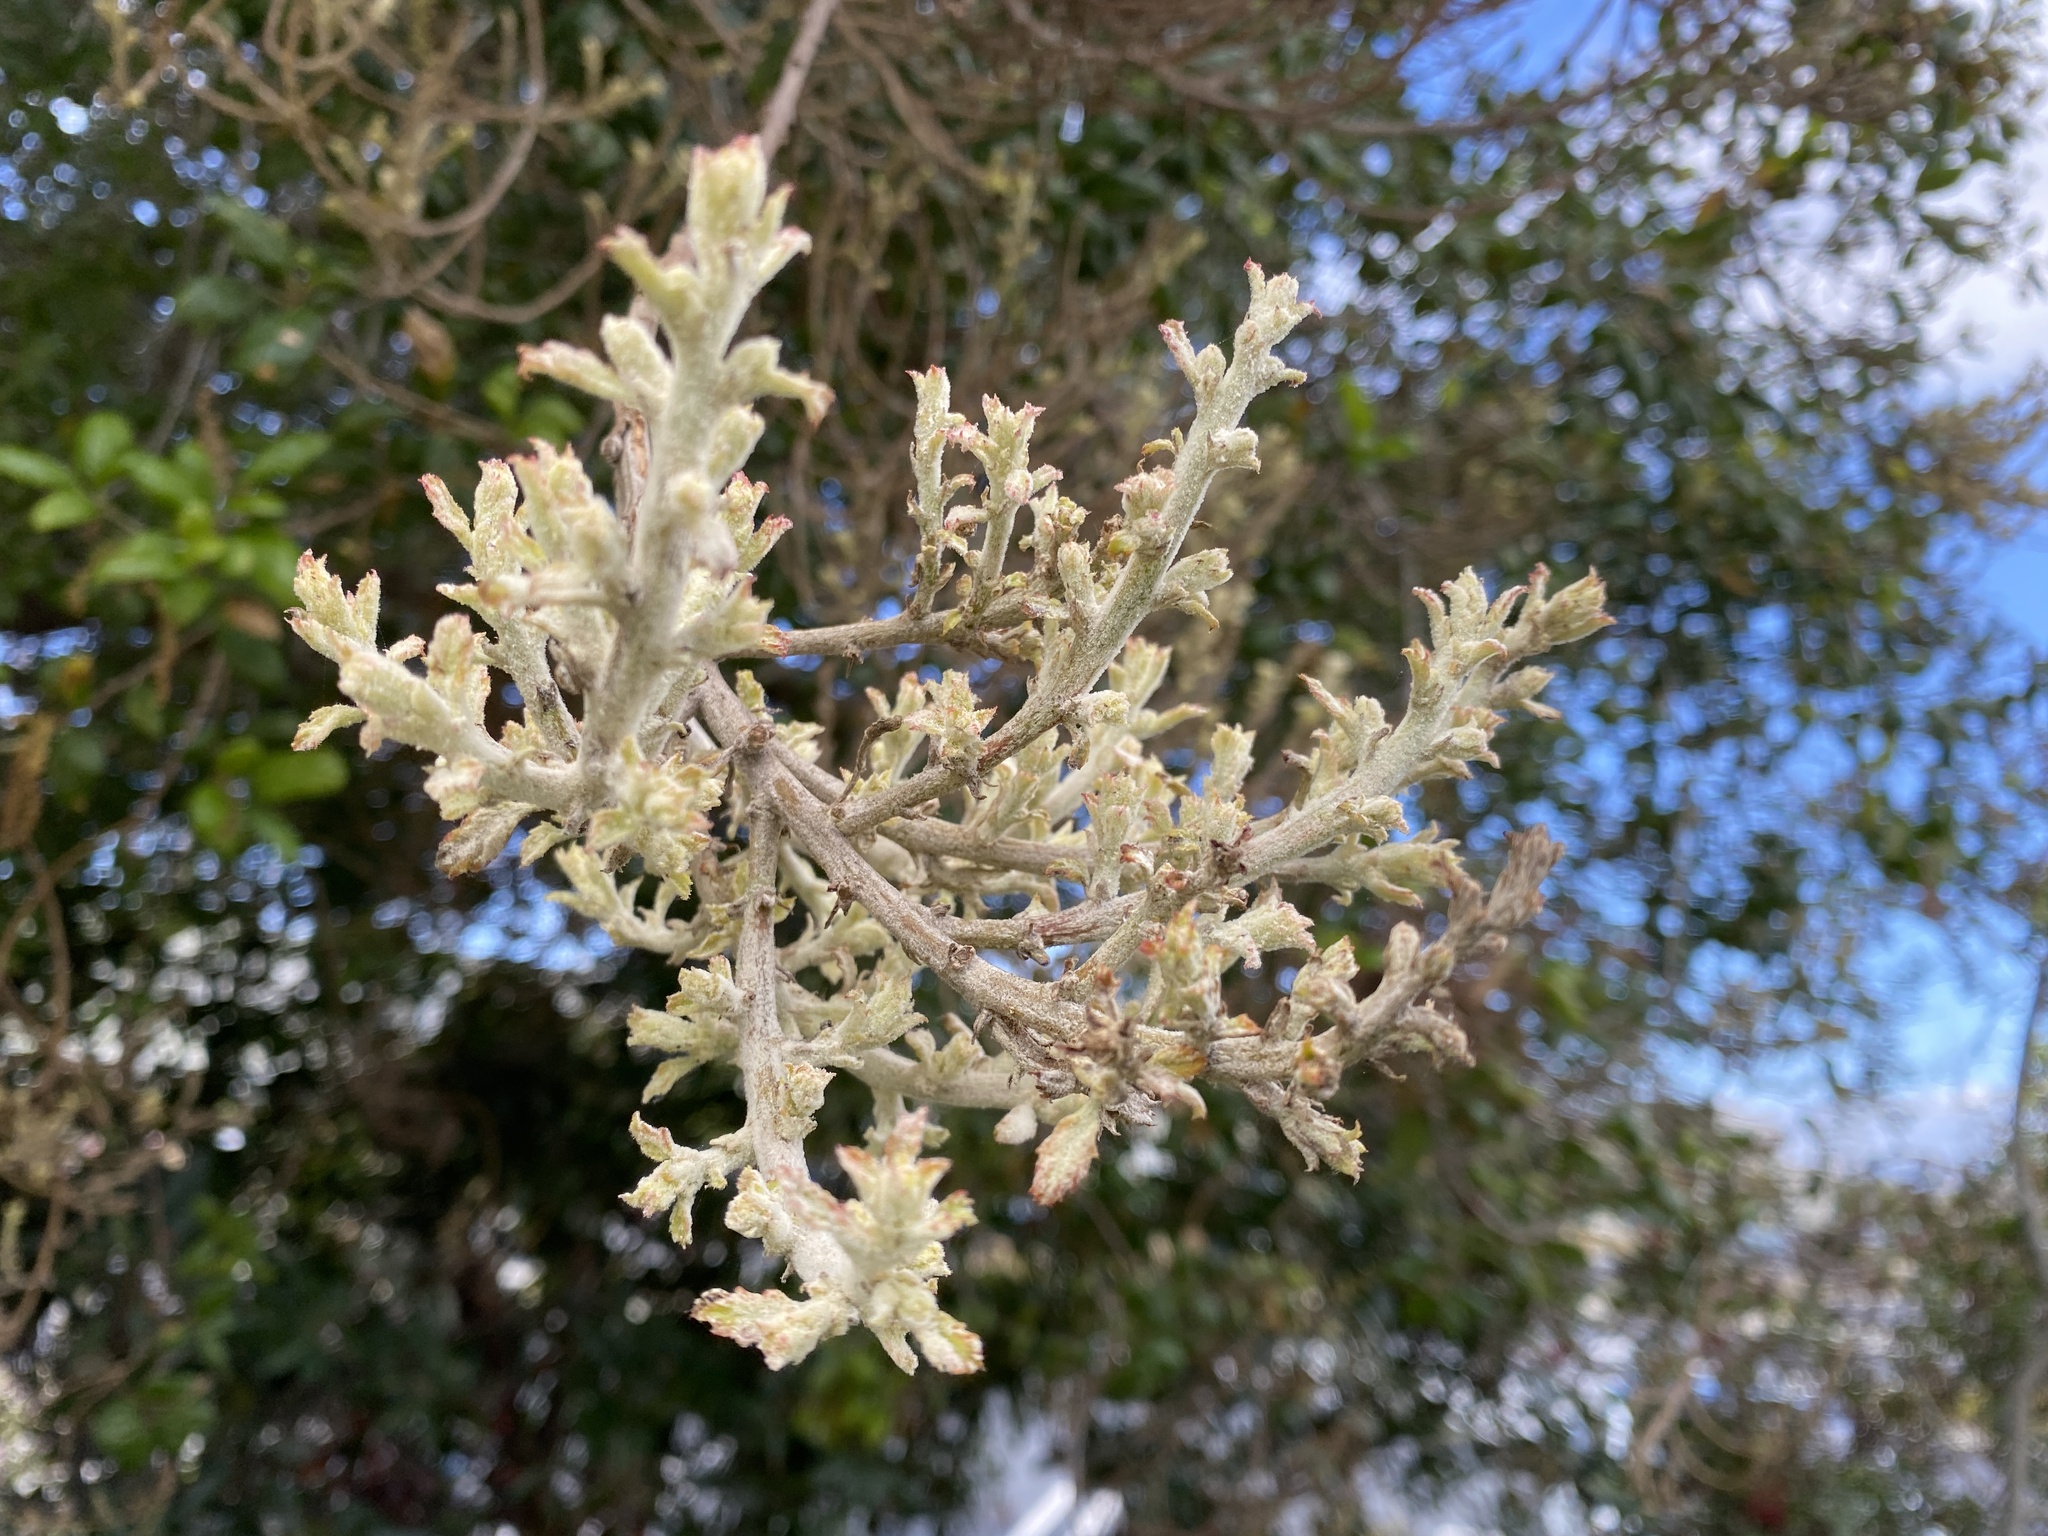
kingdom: Fungi
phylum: Ascomycota
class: Leotiomycetes
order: Helotiales
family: Erysiphaceae
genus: Cystotheca
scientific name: Cystotheca lanestris
